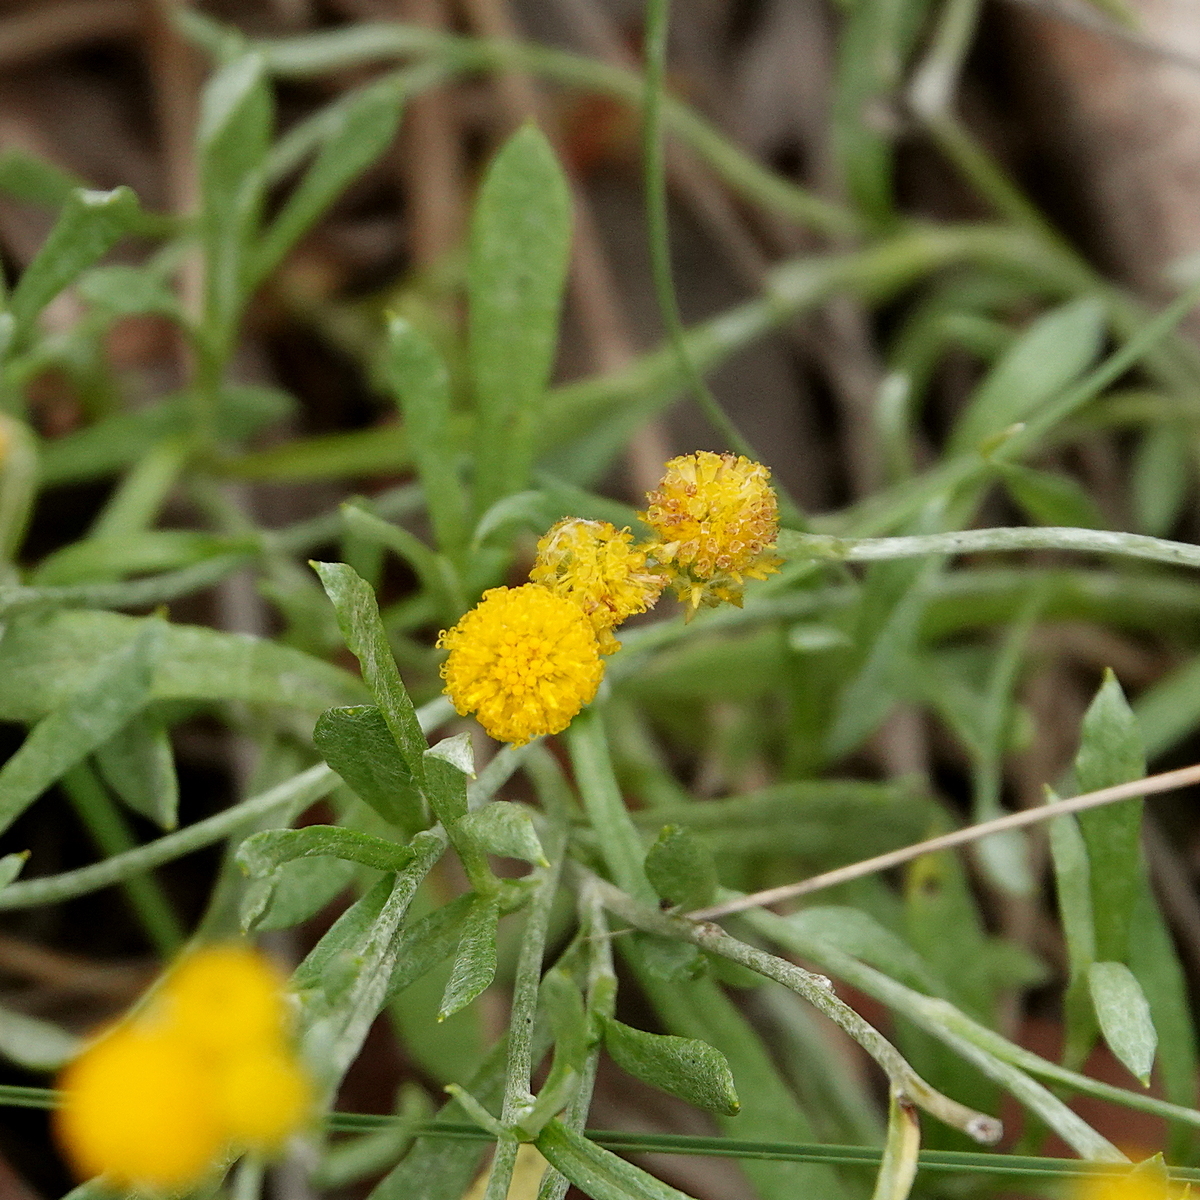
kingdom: Plantae
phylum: Tracheophyta
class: Magnoliopsida
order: Asterales
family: Asteraceae
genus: Chrysocephalum
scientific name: Chrysocephalum apiculatum
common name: Common everlasting
